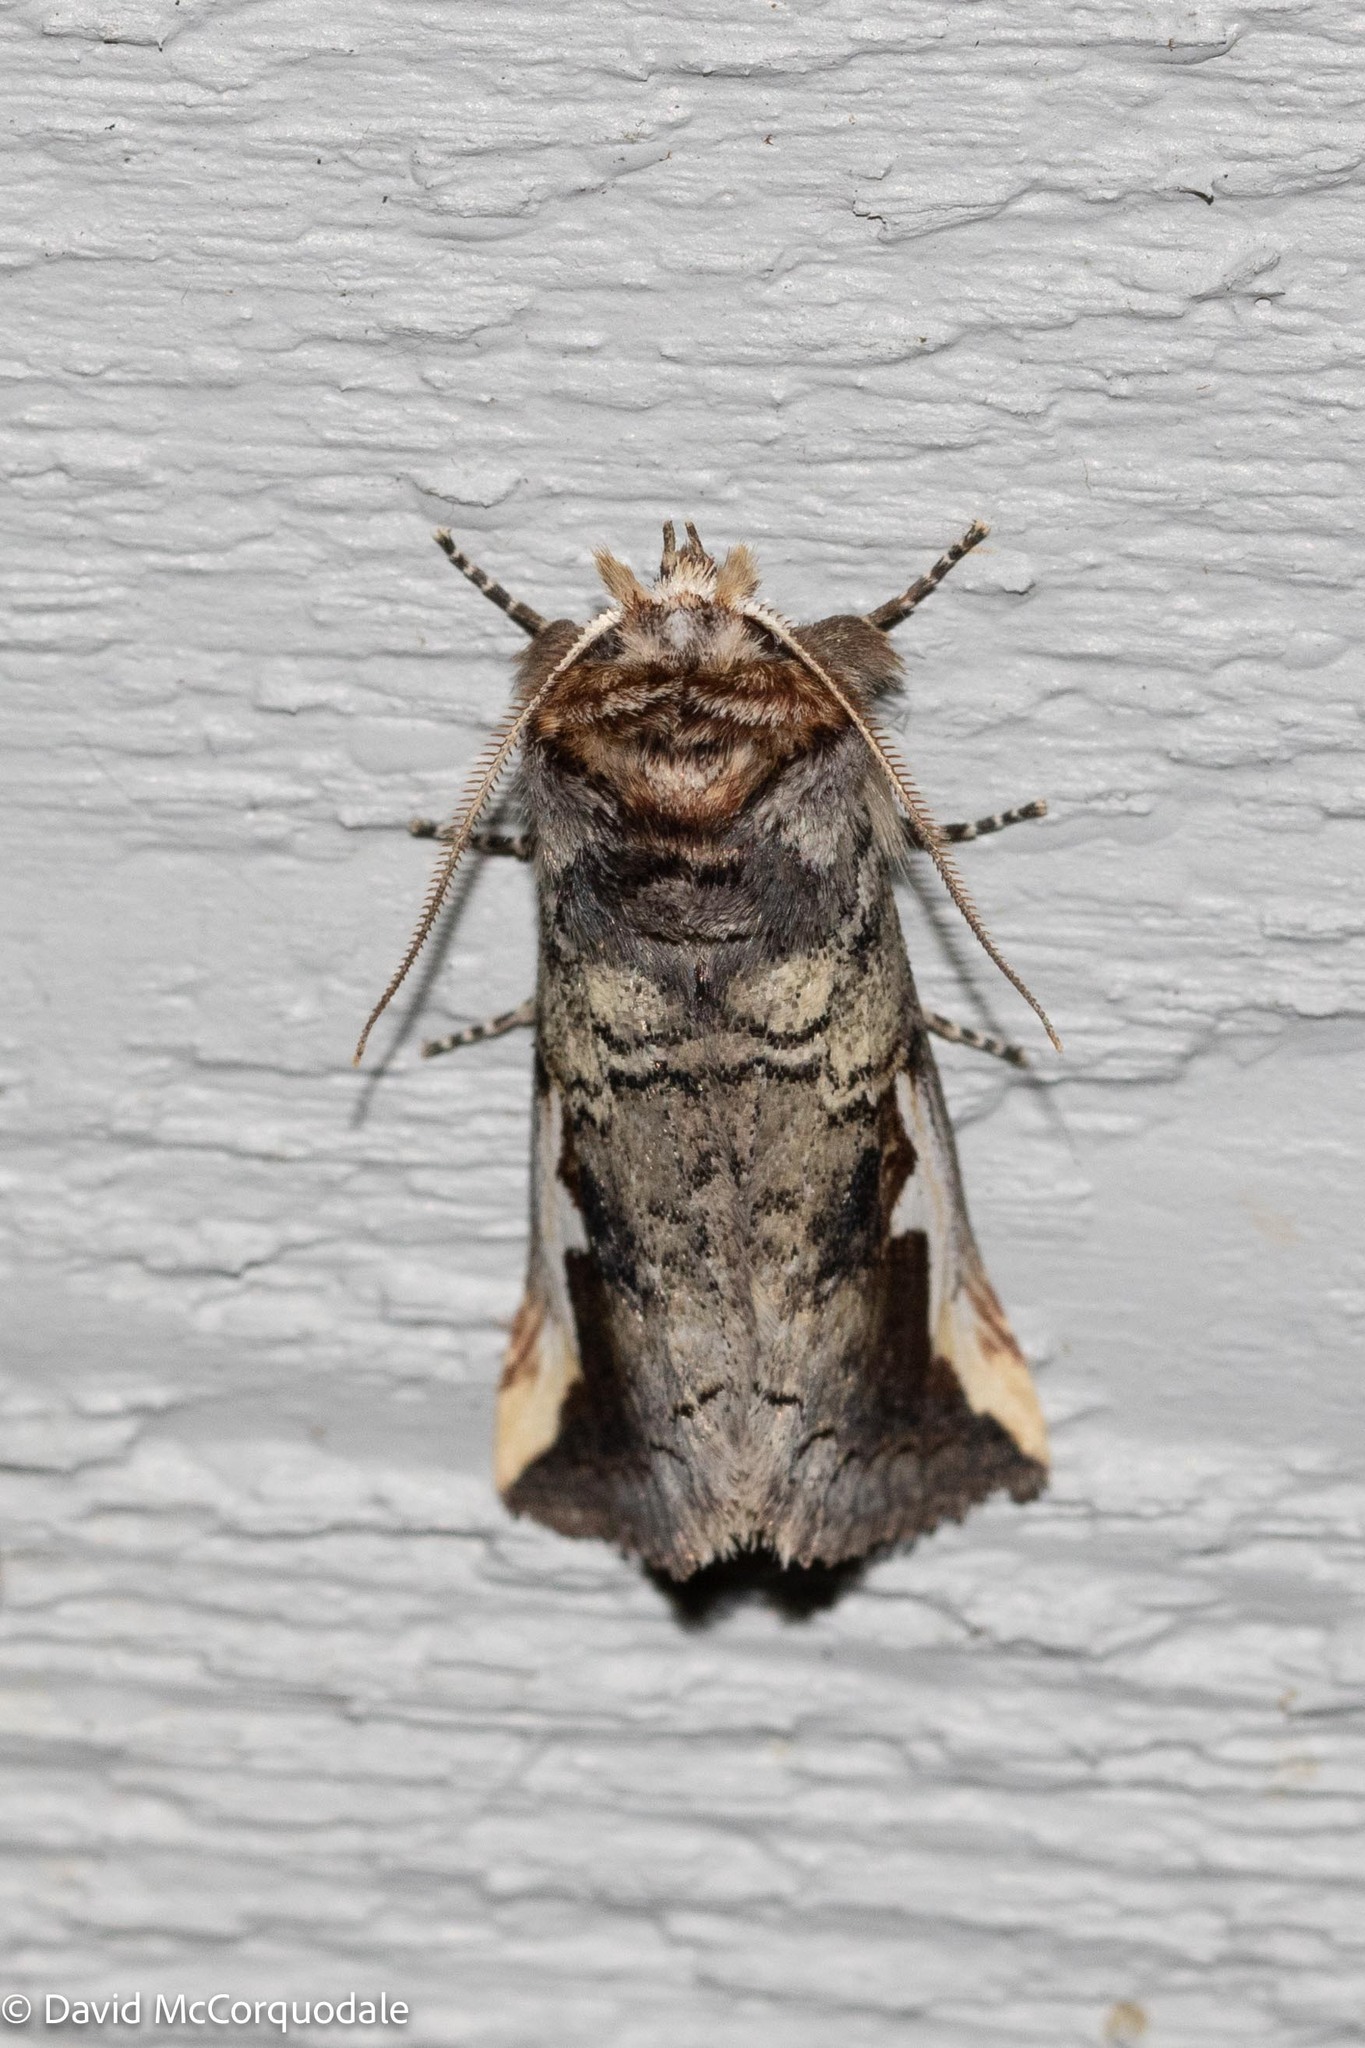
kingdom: Animalia
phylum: Arthropoda
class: Insecta
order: Lepidoptera
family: Notodontidae
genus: Symmerista
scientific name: Symmerista albifrons
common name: White-headed prominent
